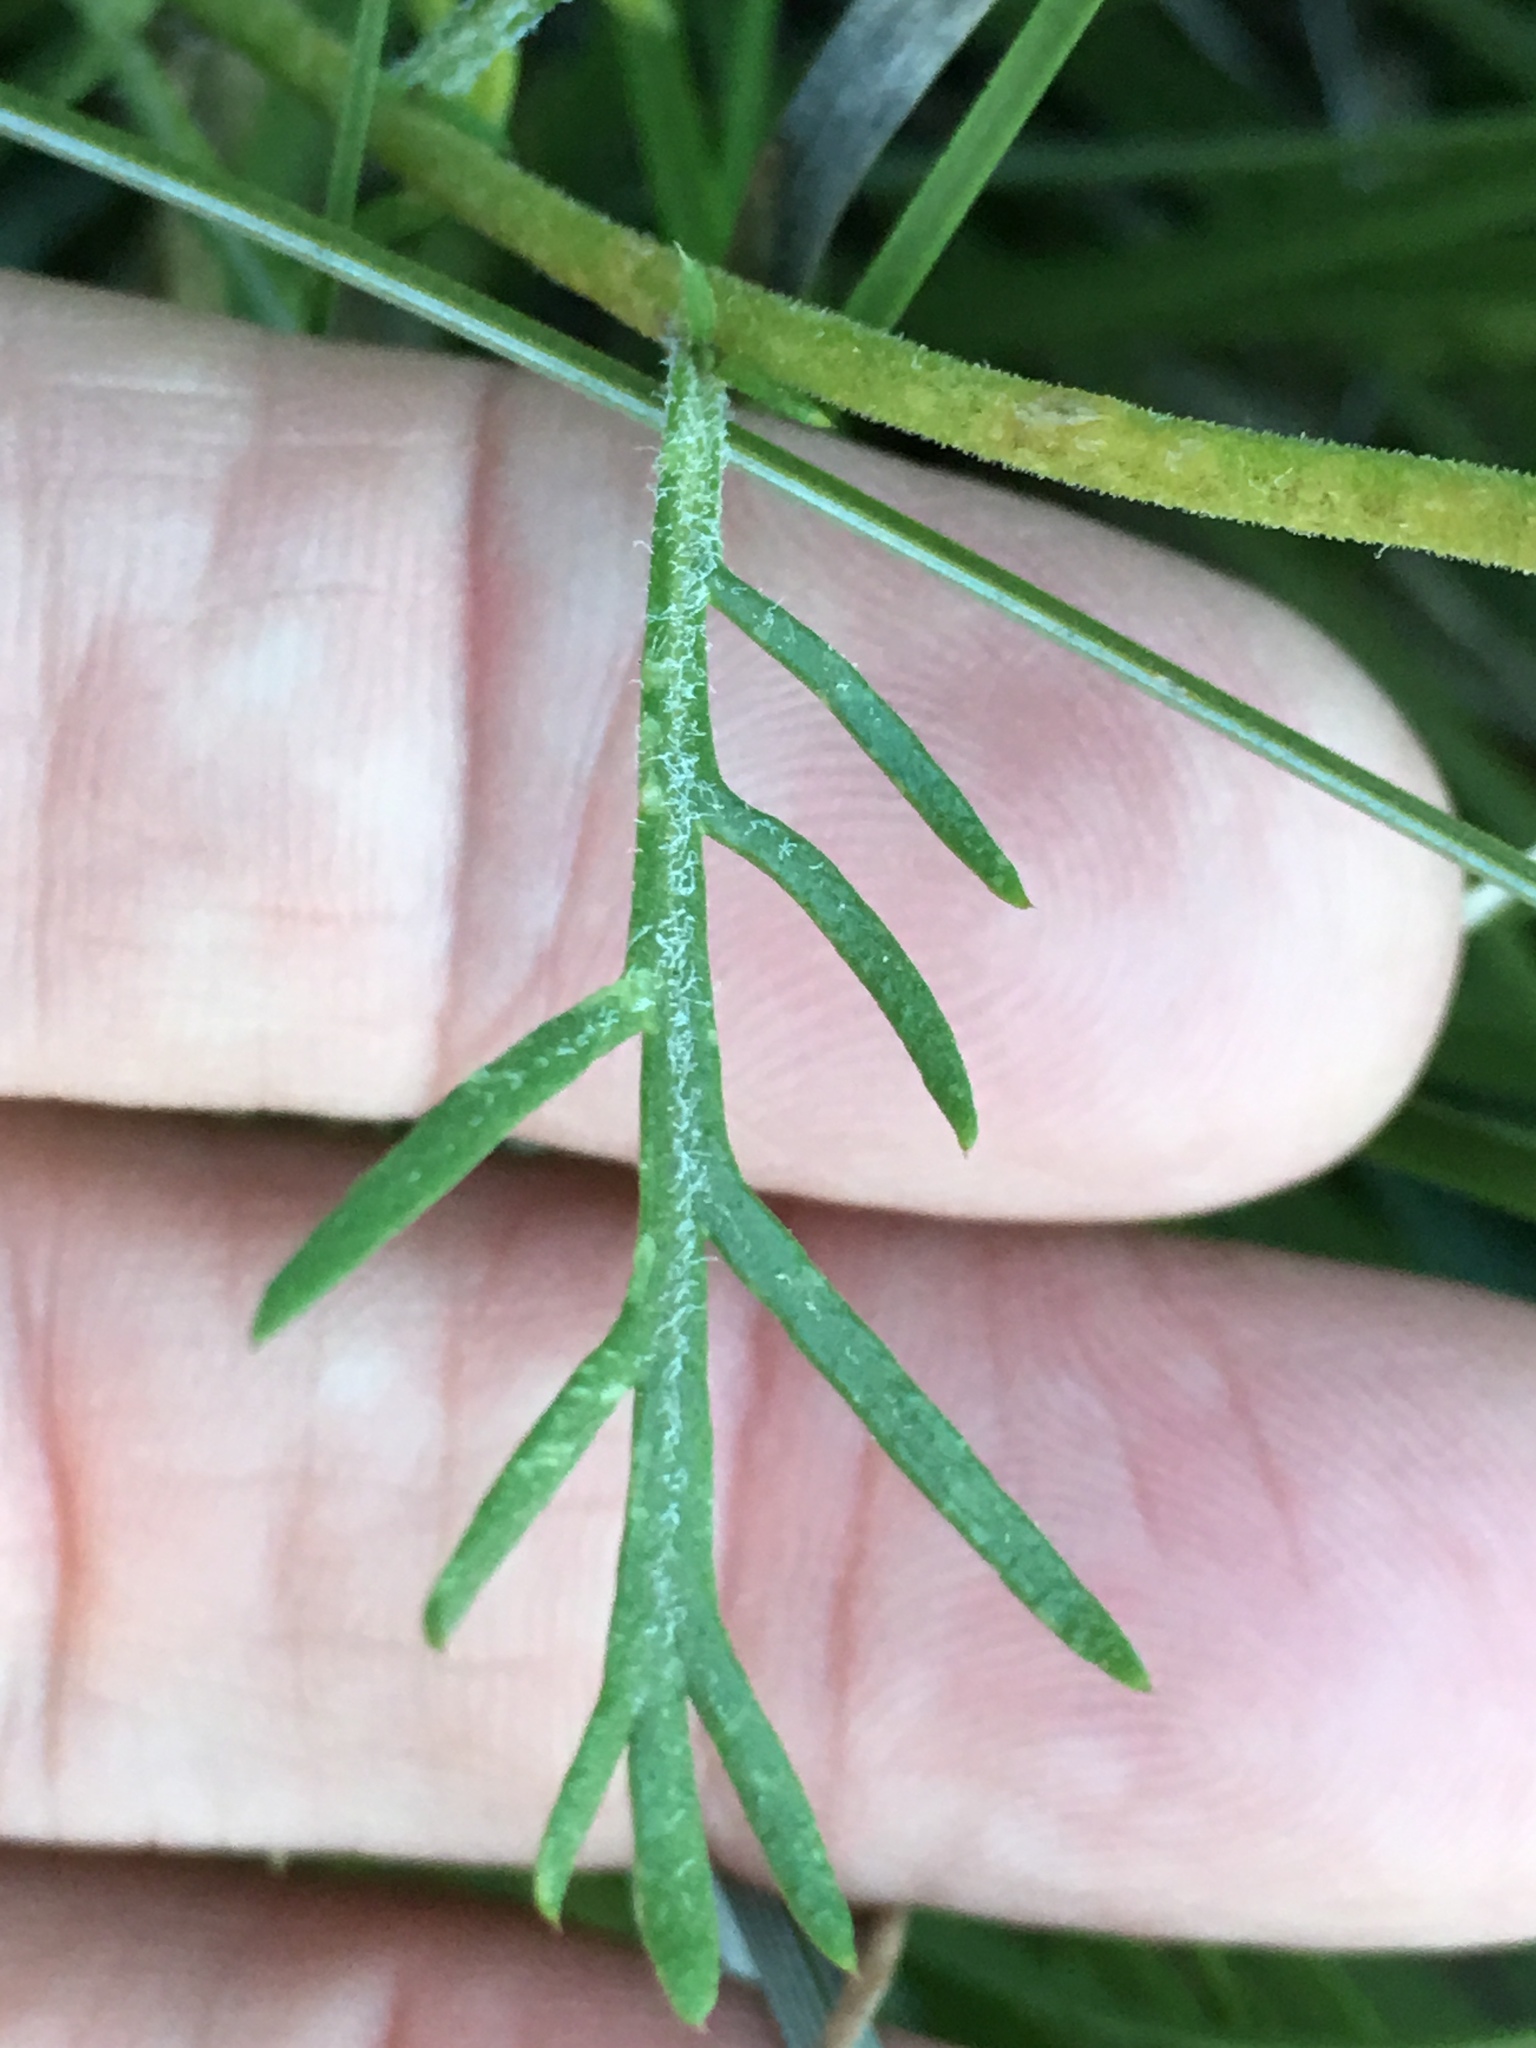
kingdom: Plantae
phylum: Tracheophyta
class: Magnoliopsida
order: Ericales
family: Polemoniaceae
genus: Ipomopsis
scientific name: Ipomopsis aggregata
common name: Scarlet gilia
